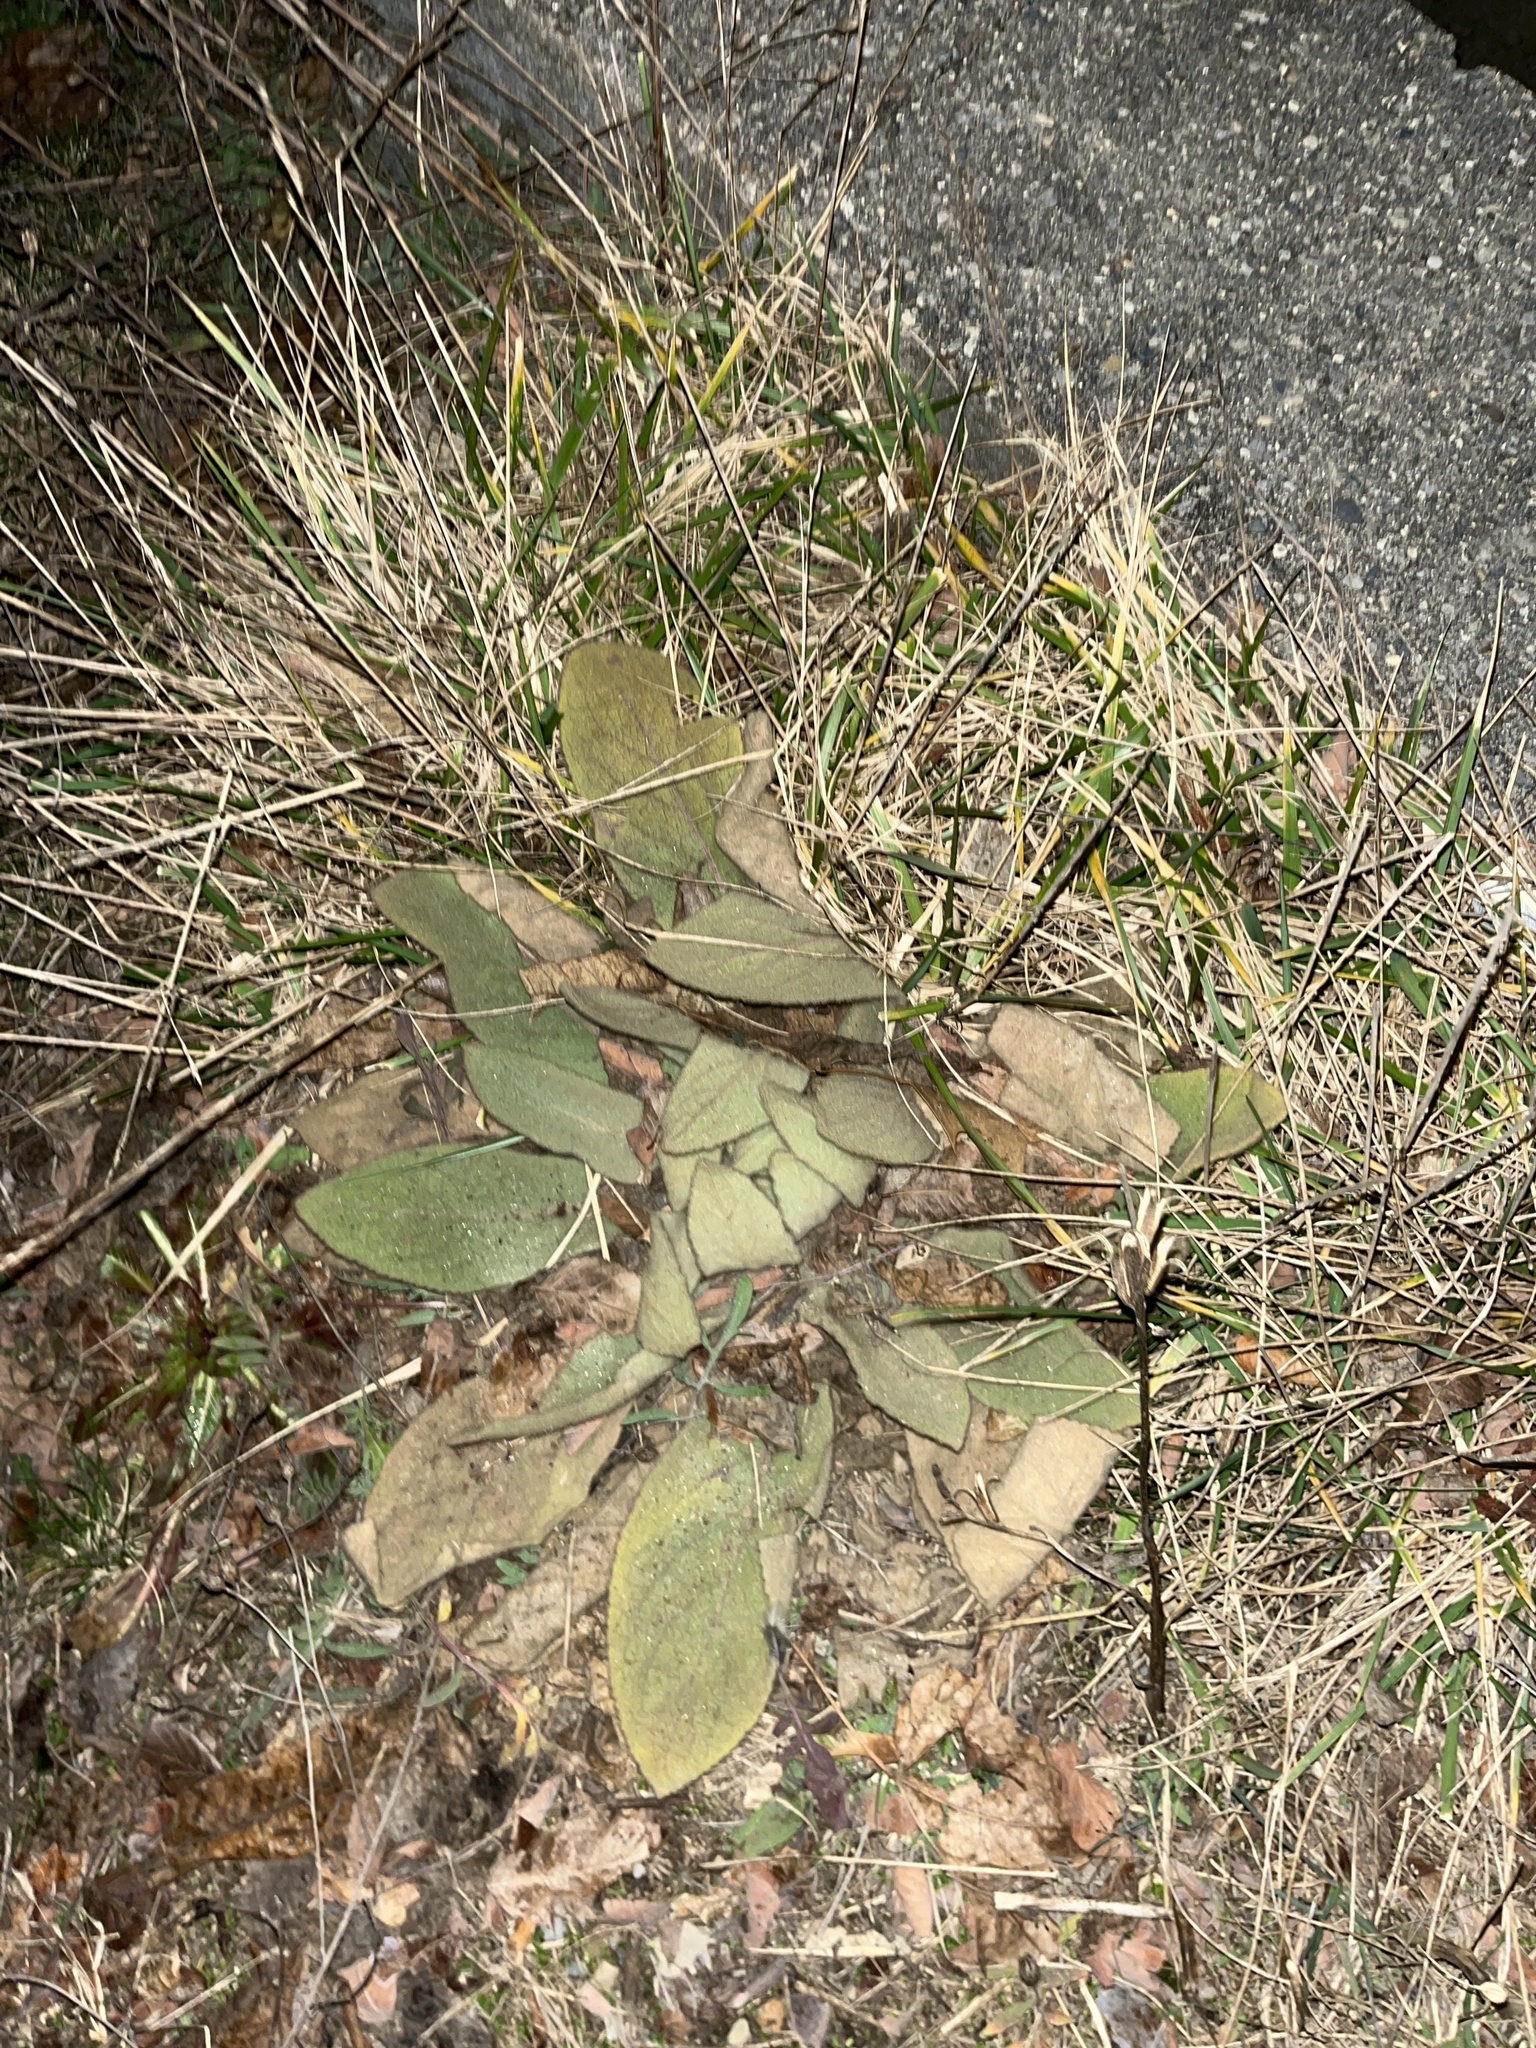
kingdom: Plantae
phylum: Tracheophyta
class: Magnoliopsida
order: Lamiales
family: Scrophulariaceae
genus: Verbascum
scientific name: Verbascum thapsus
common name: Common mullein
